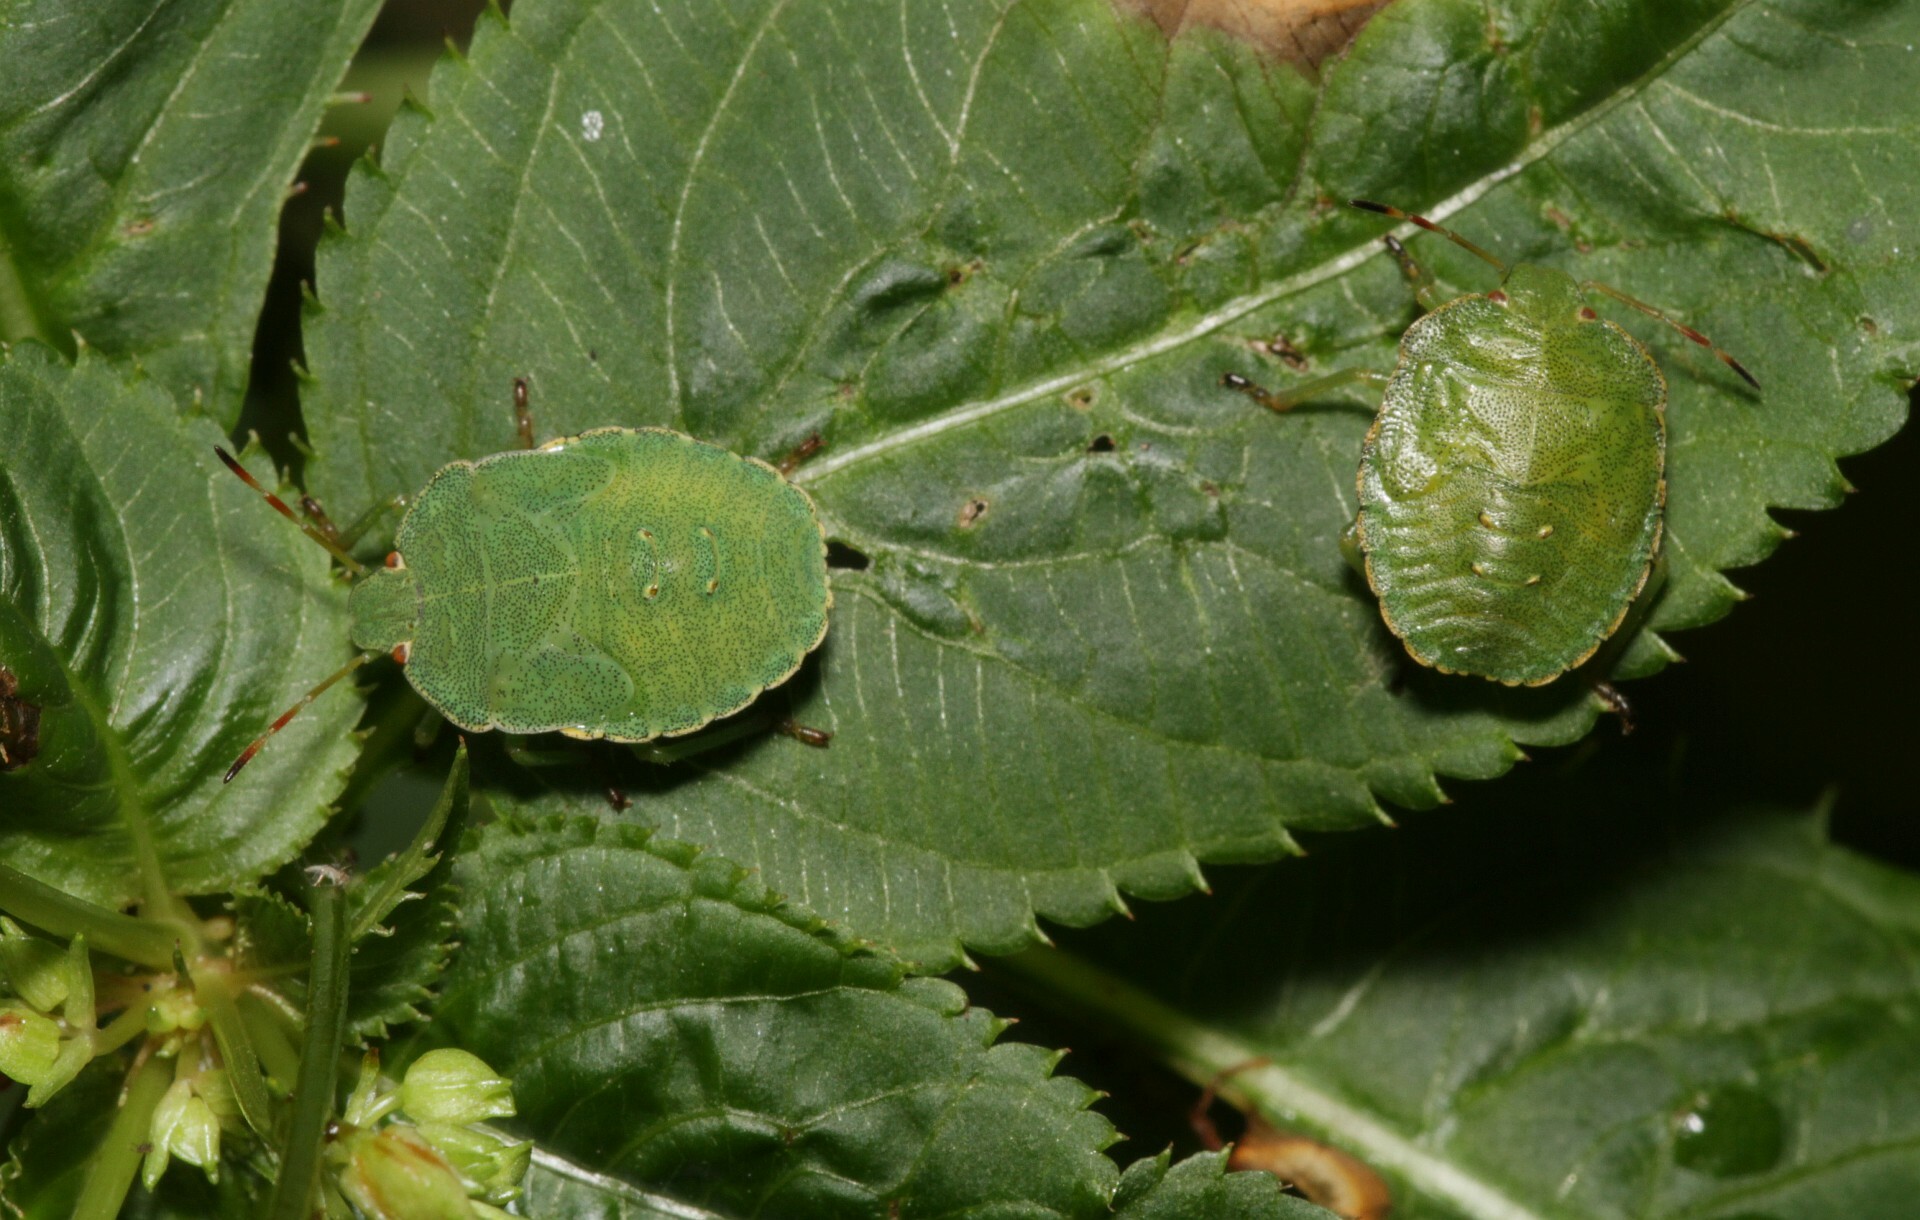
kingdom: Animalia
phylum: Arthropoda
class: Insecta
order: Hemiptera
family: Pentatomidae
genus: Palomena
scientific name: Palomena prasina
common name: Green shieldbug
